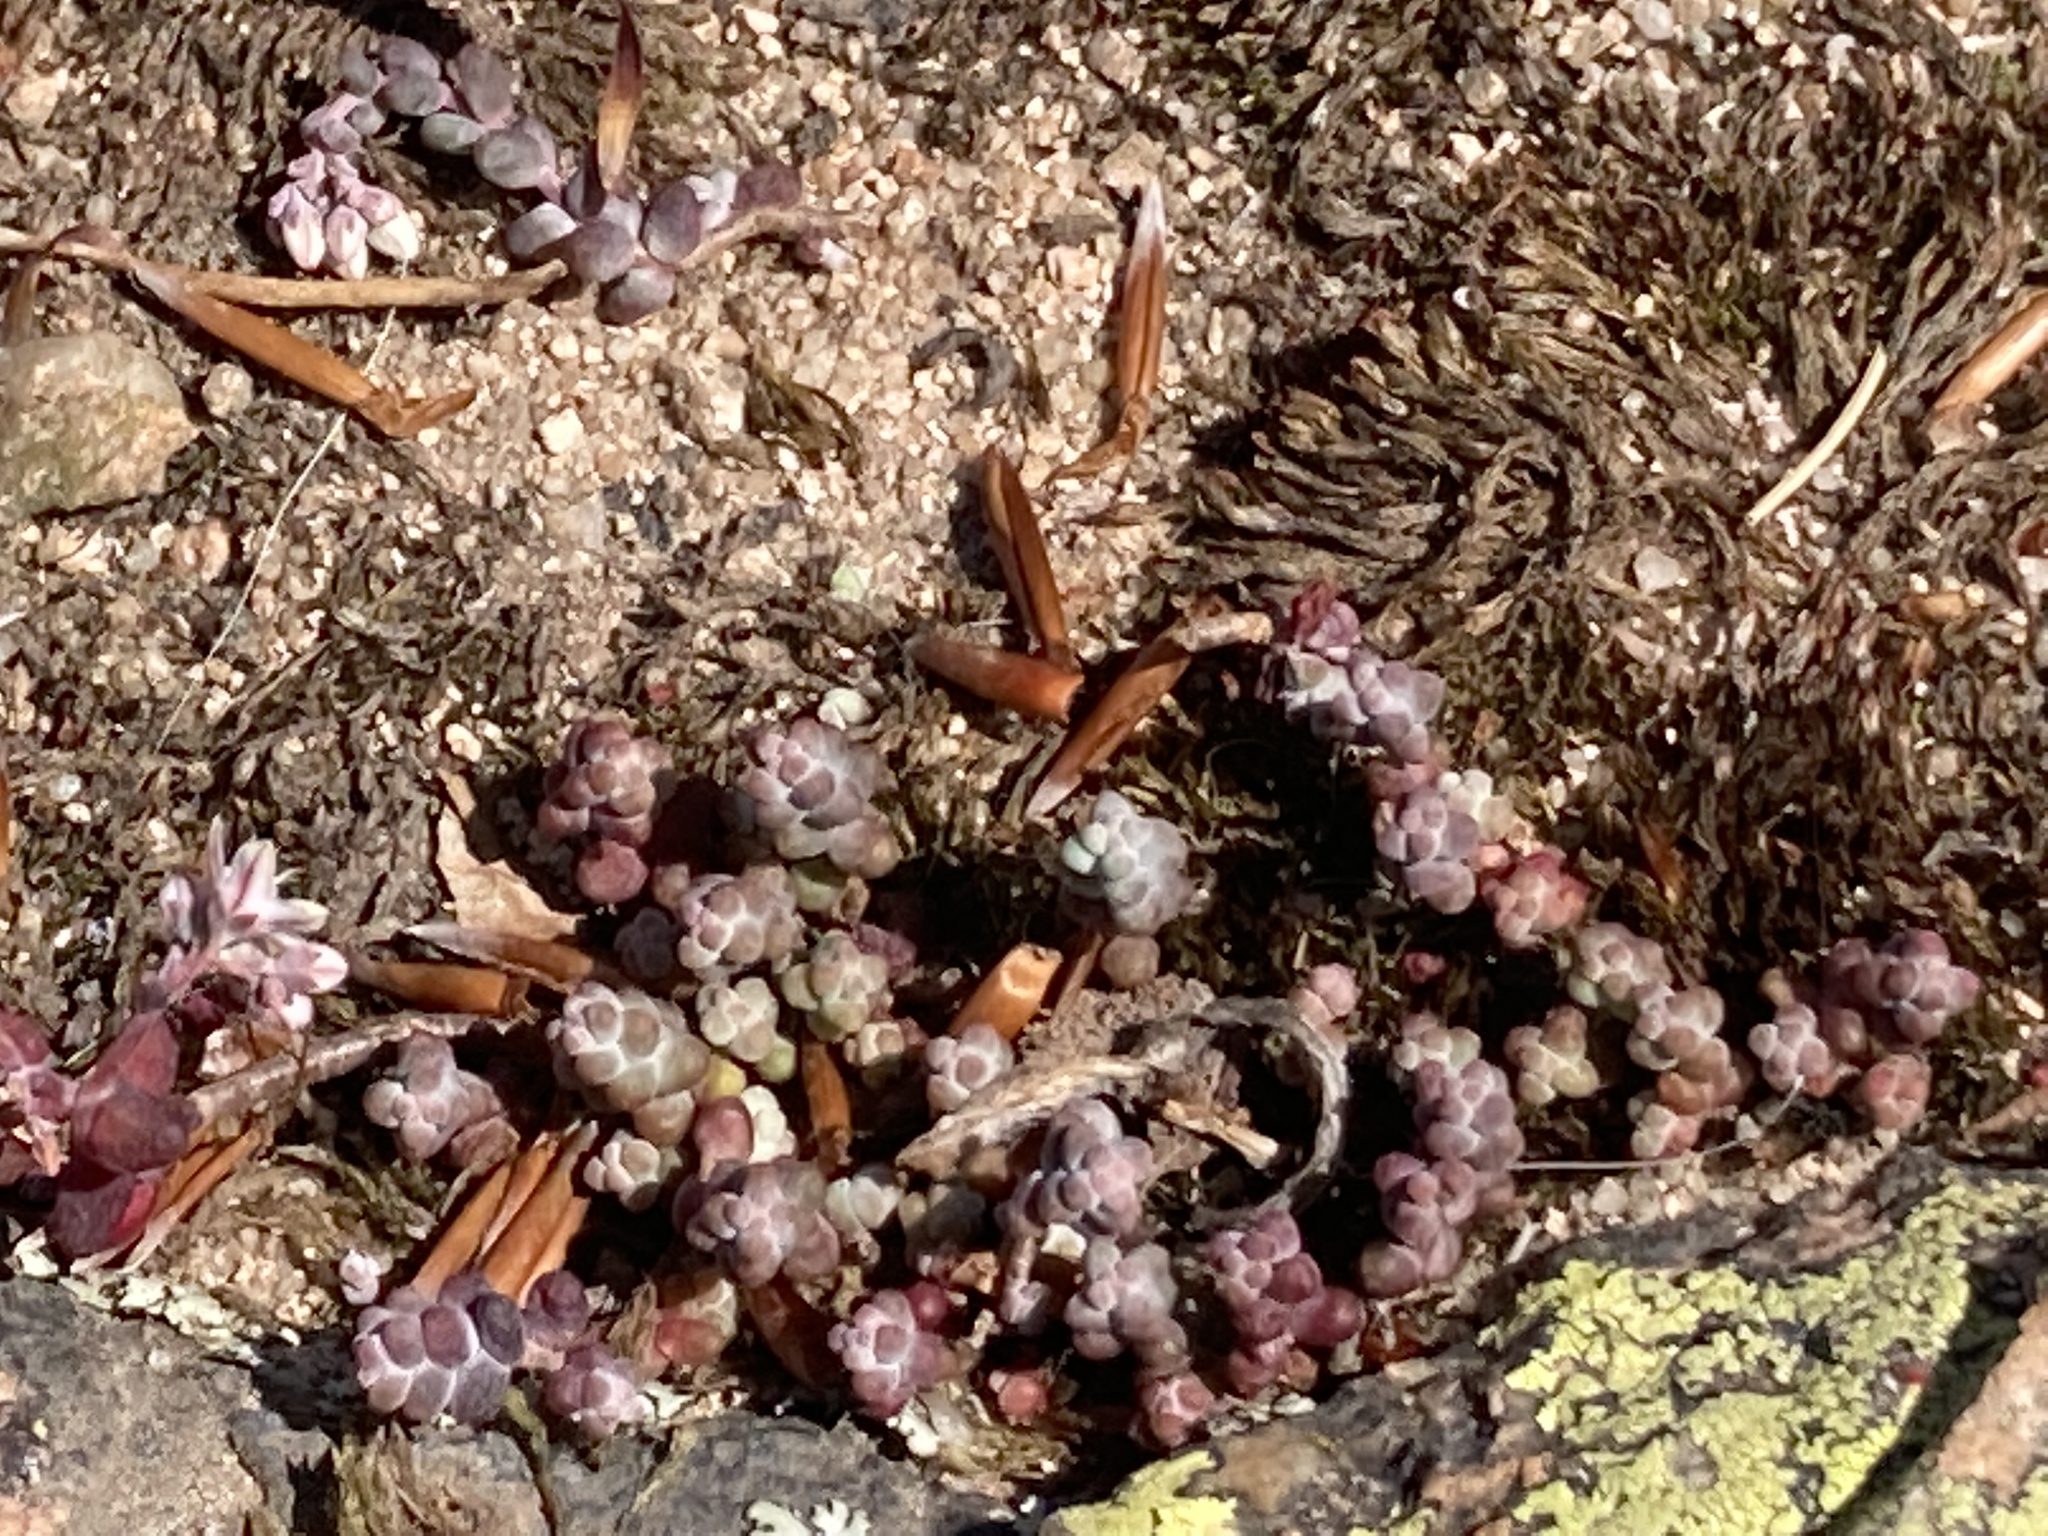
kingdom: Plantae
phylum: Tracheophyta
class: Magnoliopsida
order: Saxifragales
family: Crassulaceae
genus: Sedum
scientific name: Sedum brevifolium
